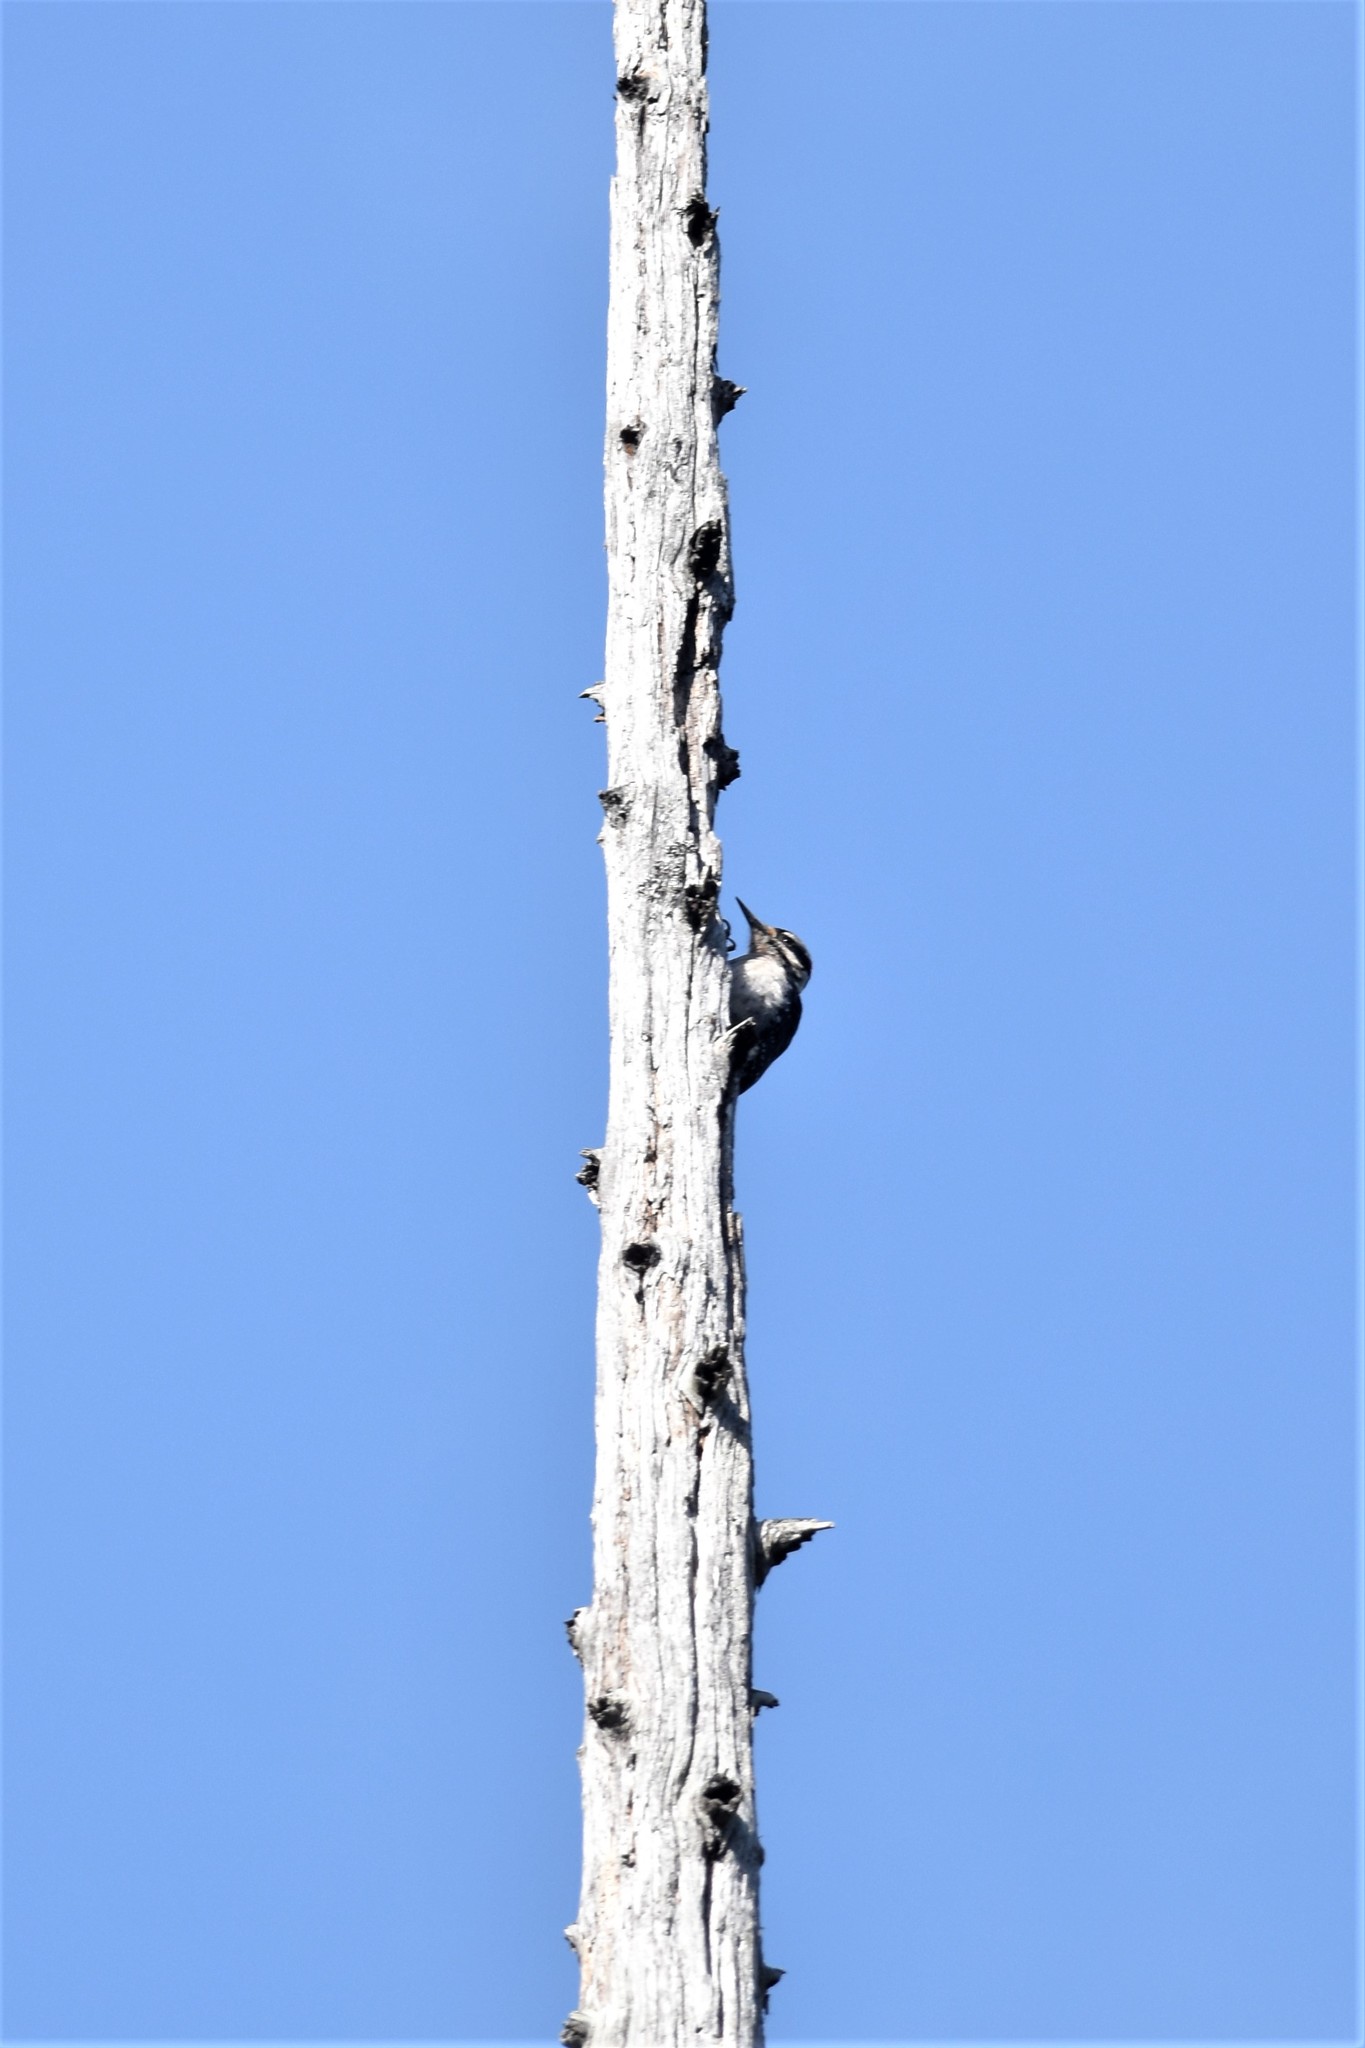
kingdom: Animalia
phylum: Chordata
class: Aves
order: Piciformes
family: Picidae
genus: Leuconotopicus
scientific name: Leuconotopicus villosus
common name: Hairy woodpecker
